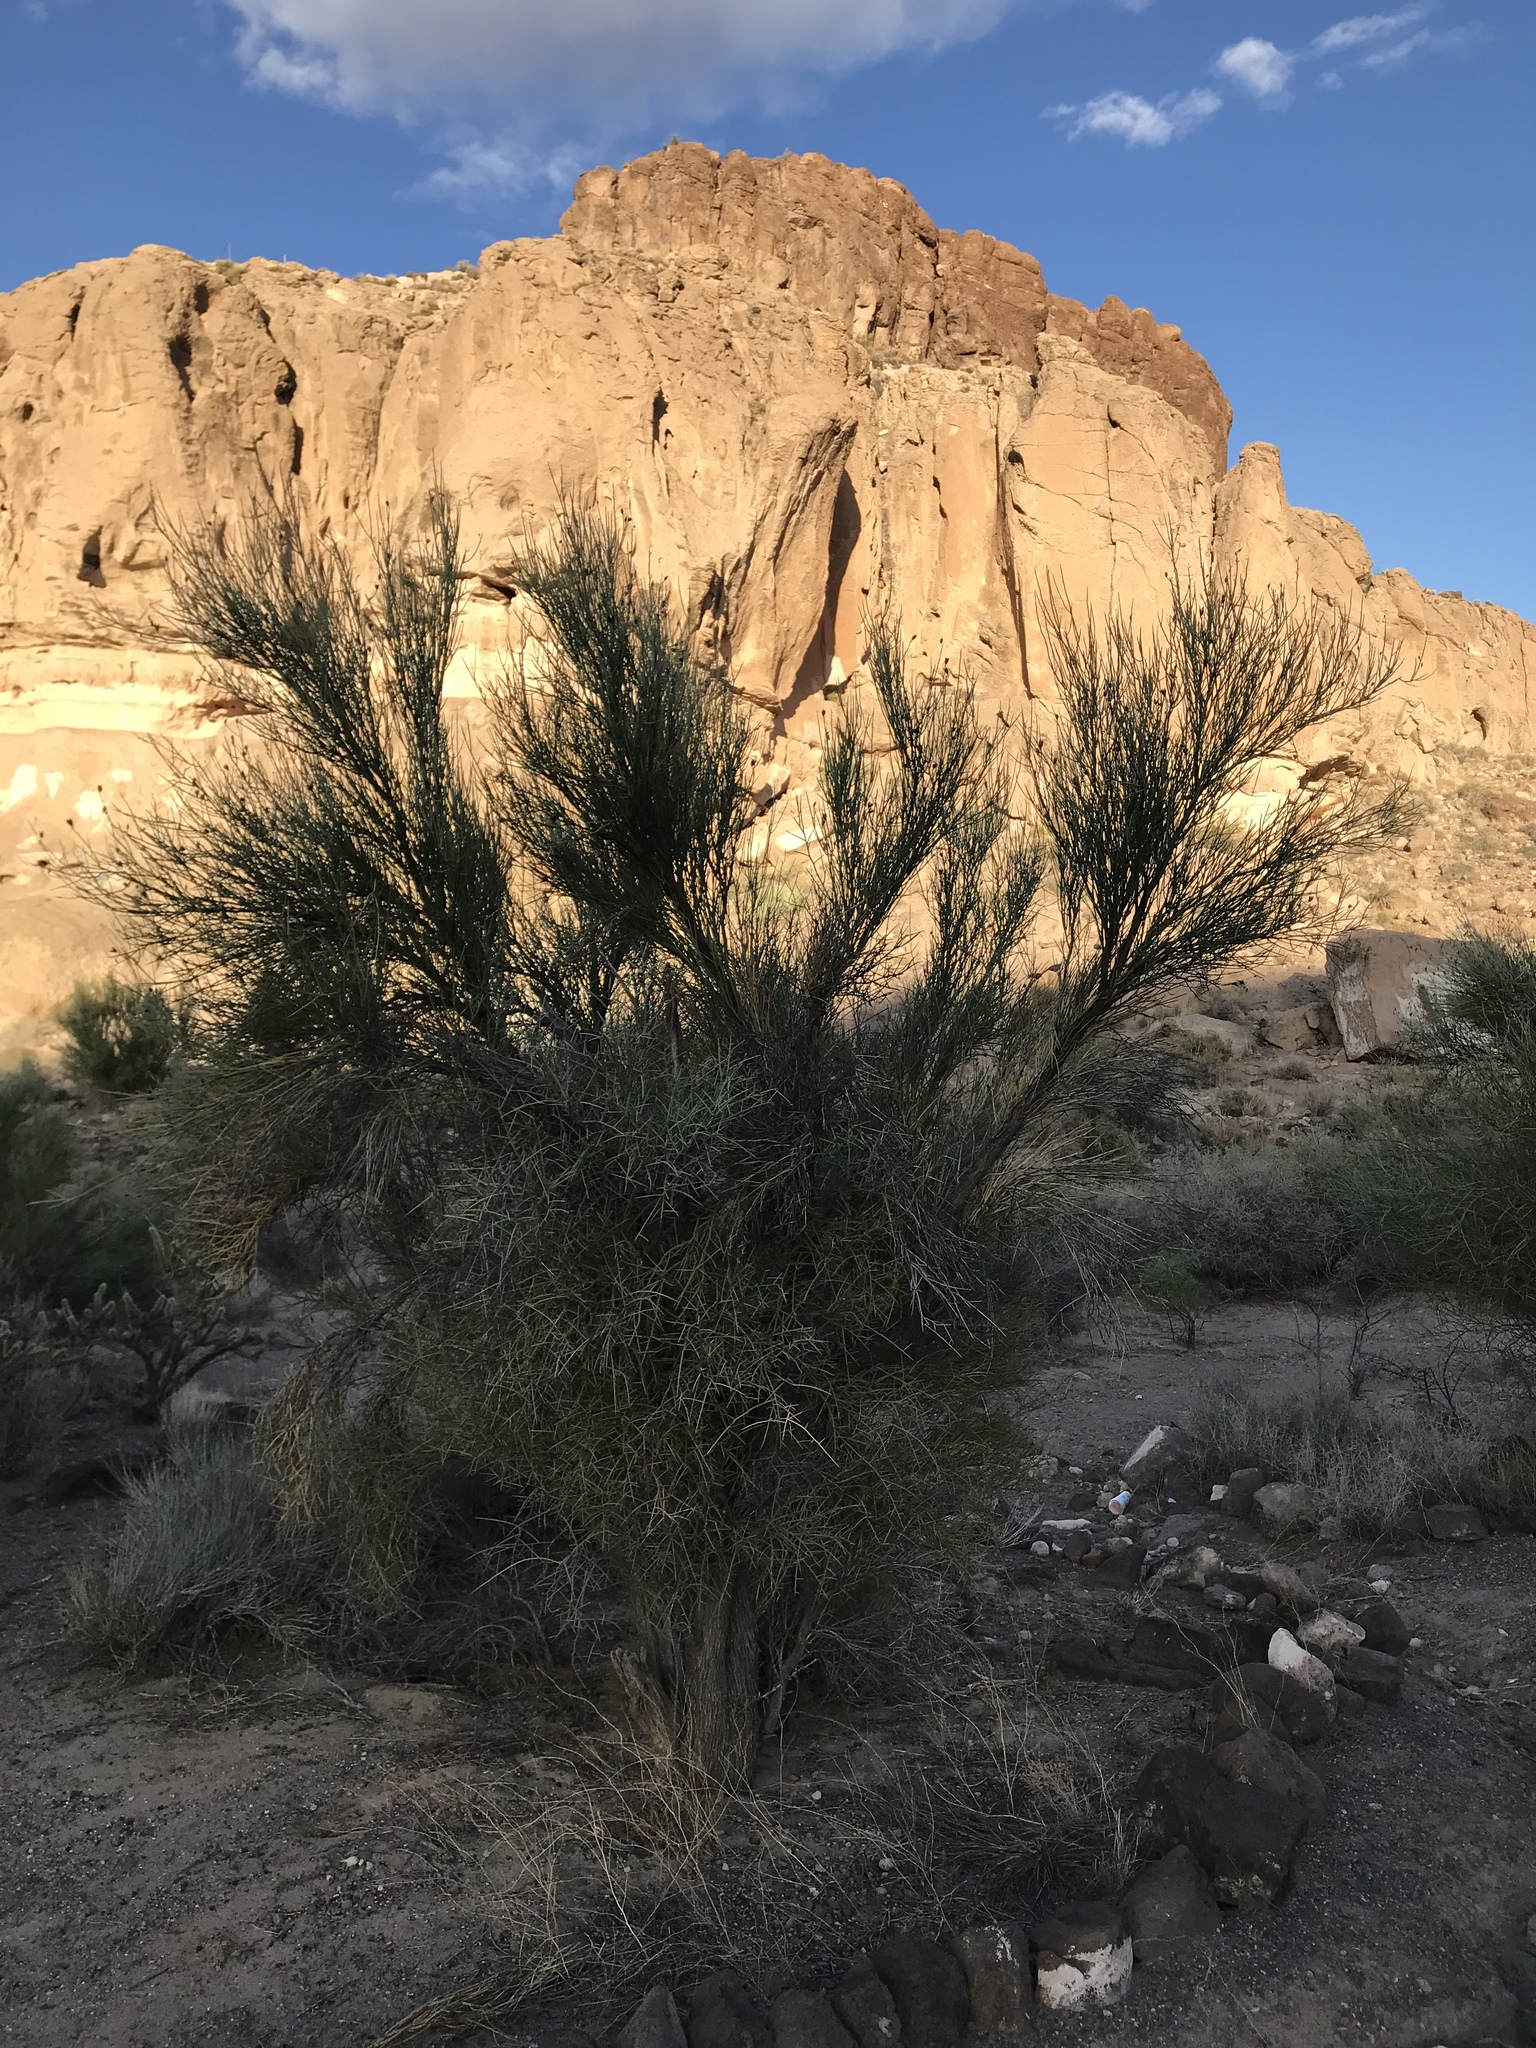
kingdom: Plantae
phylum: Tracheophyta
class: Magnoliopsida
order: Celastrales
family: Celastraceae
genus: Canotia
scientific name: Canotia holacantha
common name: Crucifixion thorns
